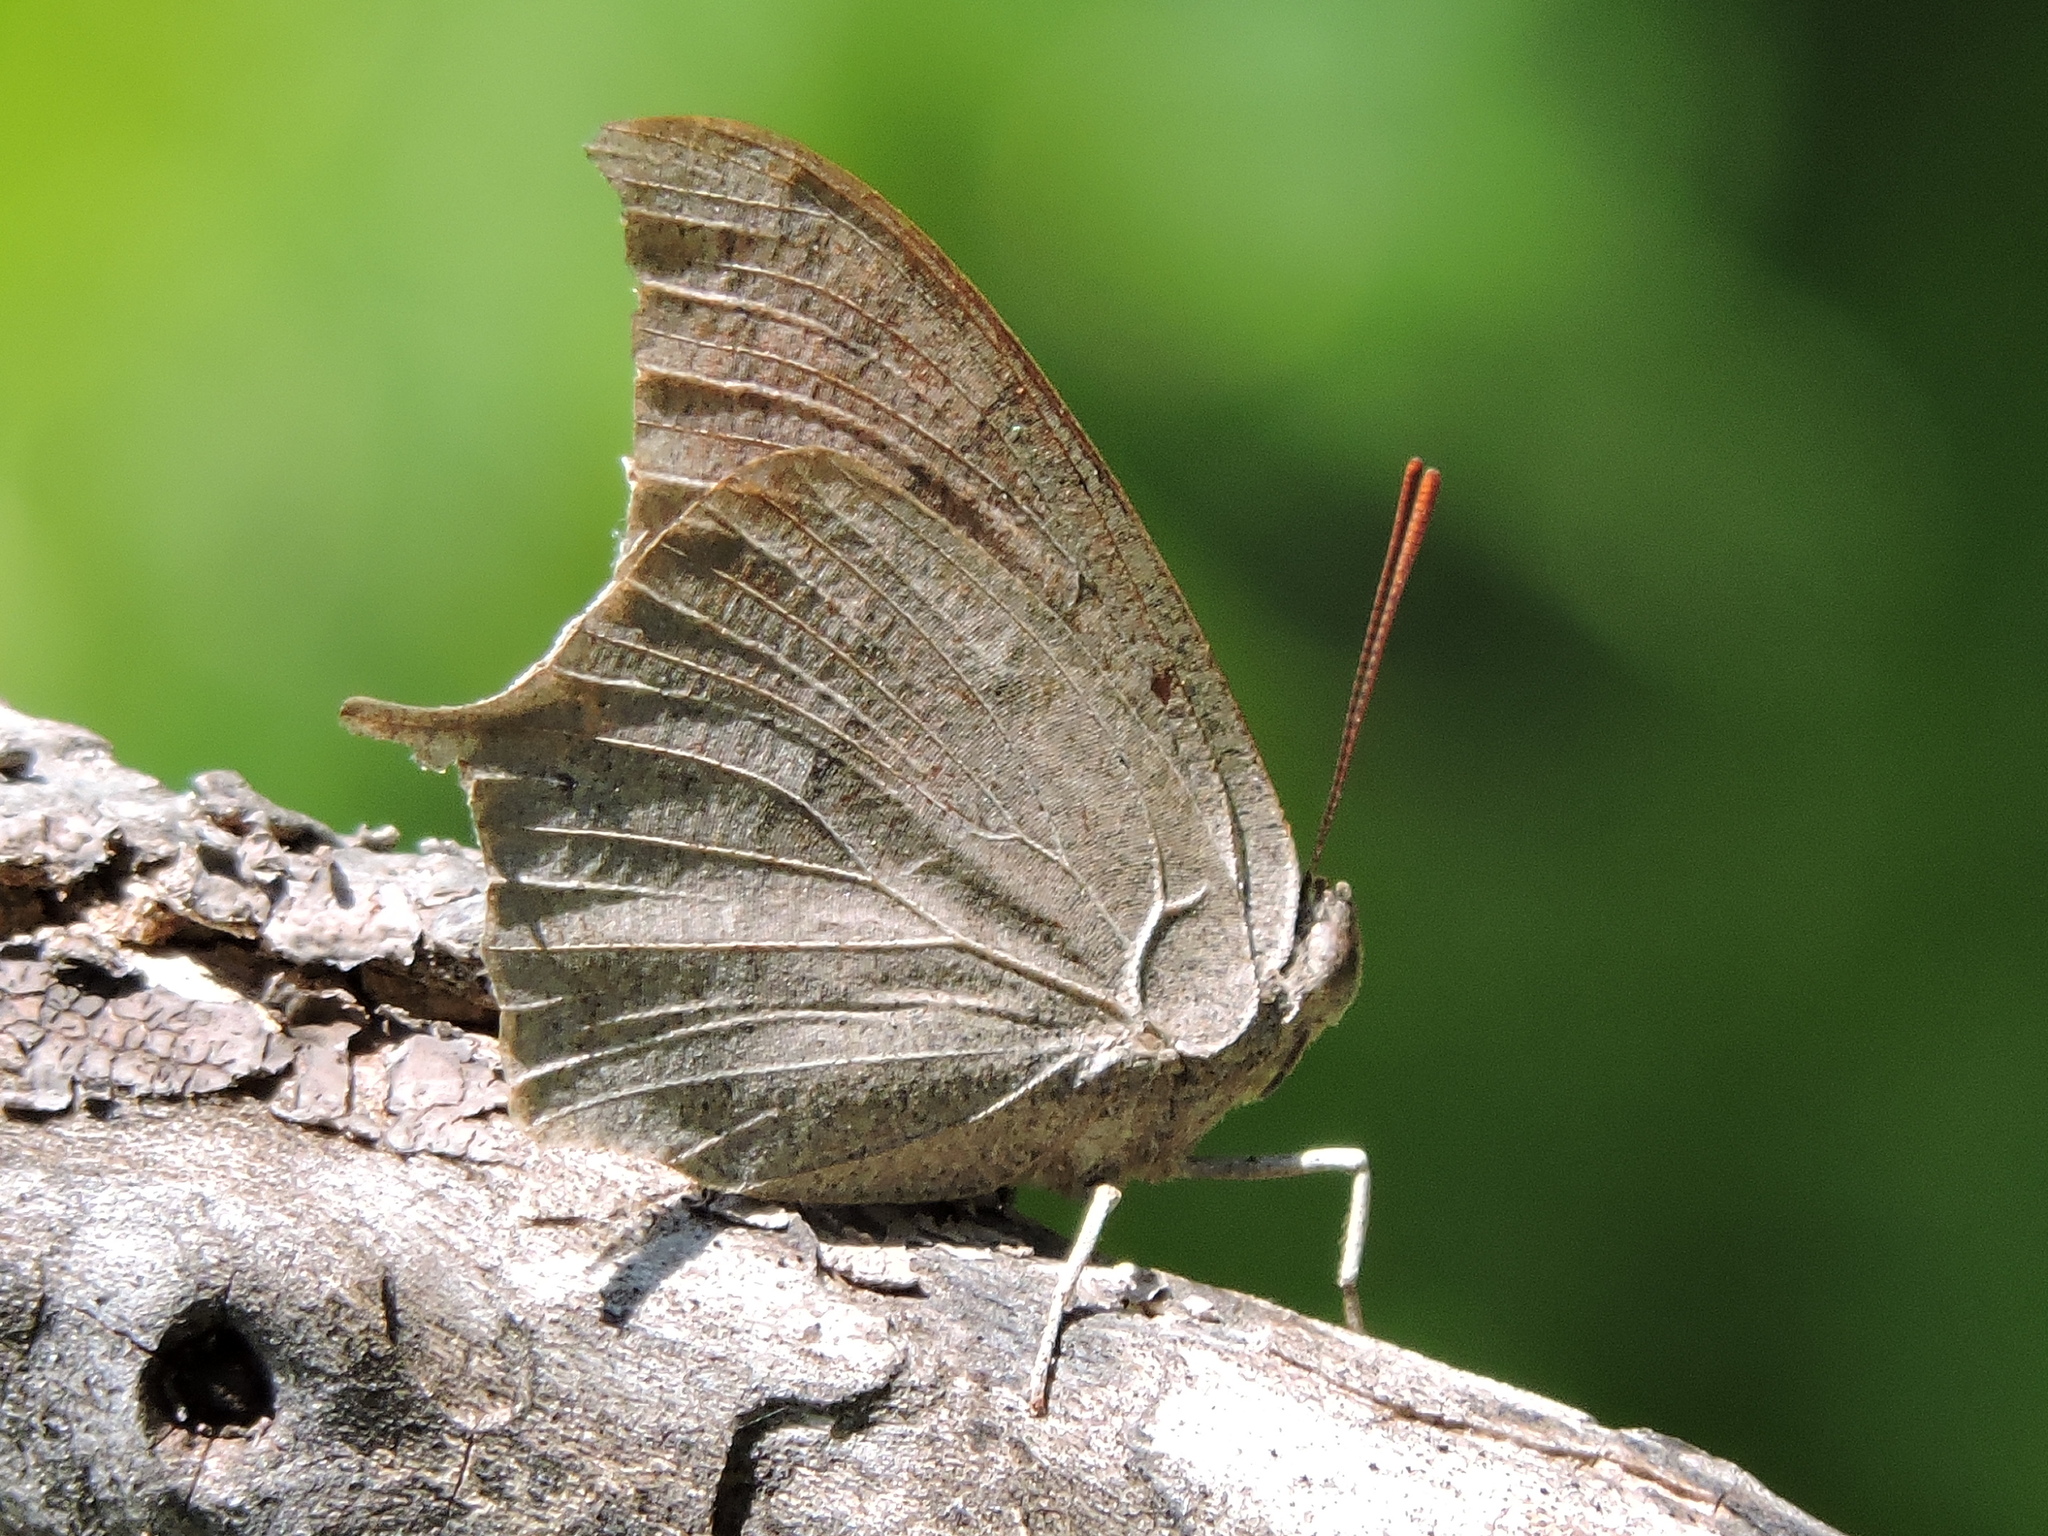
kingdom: Animalia
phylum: Arthropoda
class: Insecta
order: Lepidoptera
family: Nymphalidae
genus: Anaea
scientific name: Anaea andria
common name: Goatweed leafwing
